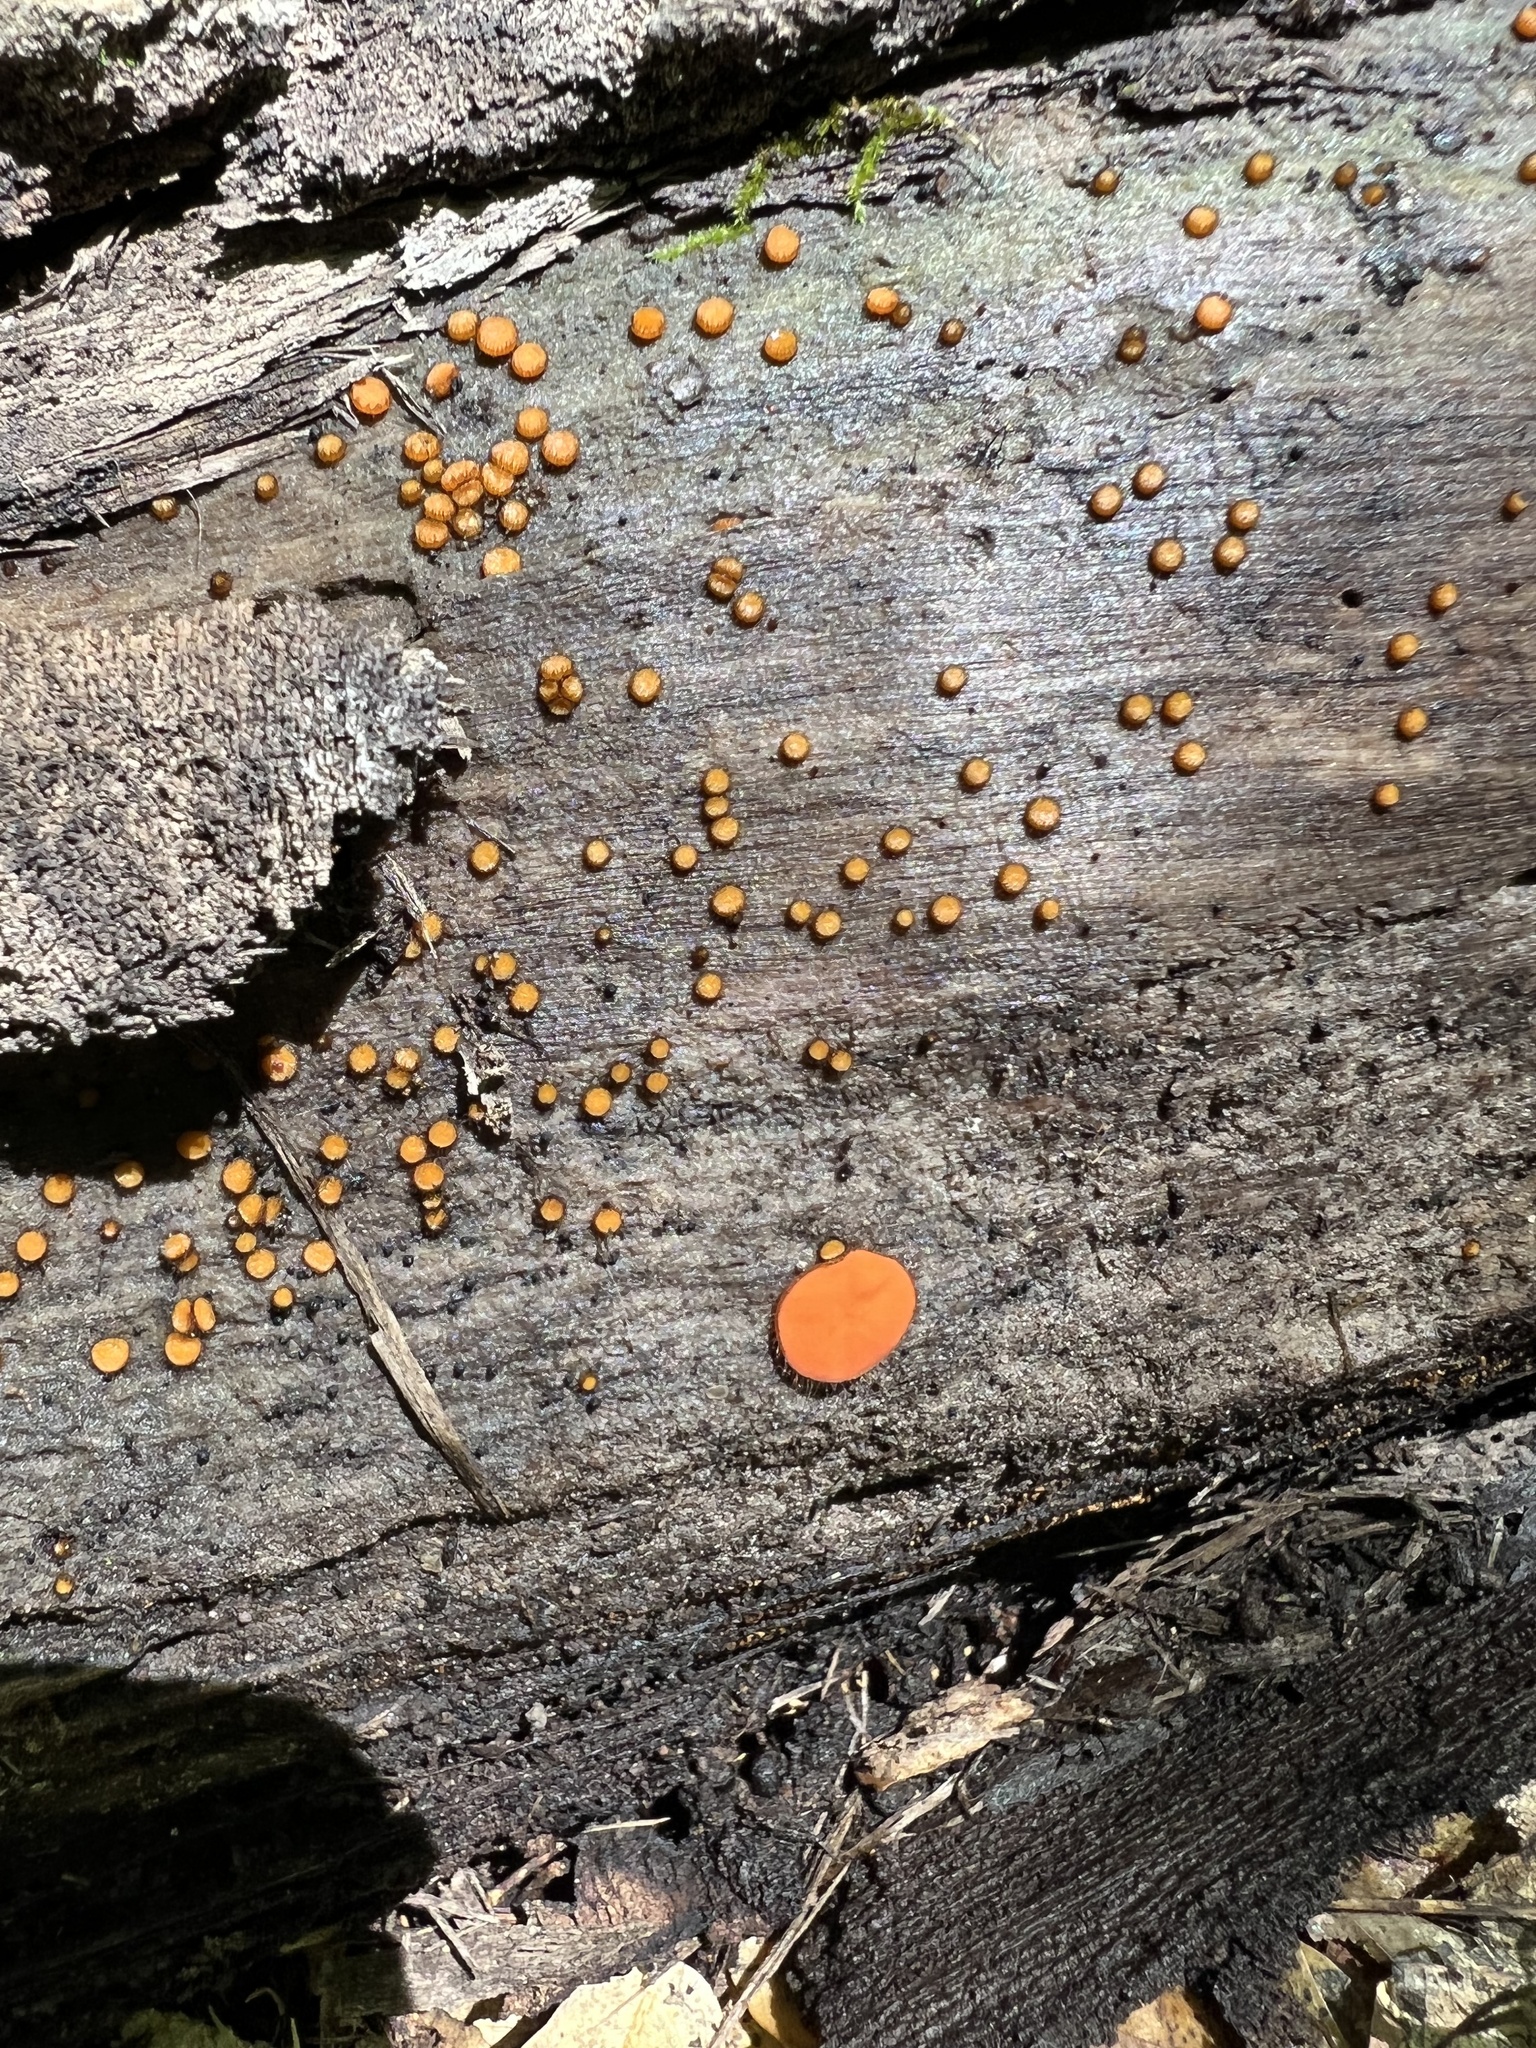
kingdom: Fungi
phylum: Ascomycota
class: Pezizomycetes
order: Pezizales
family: Pyronemataceae
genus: Scutellinia
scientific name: Scutellinia setosa
